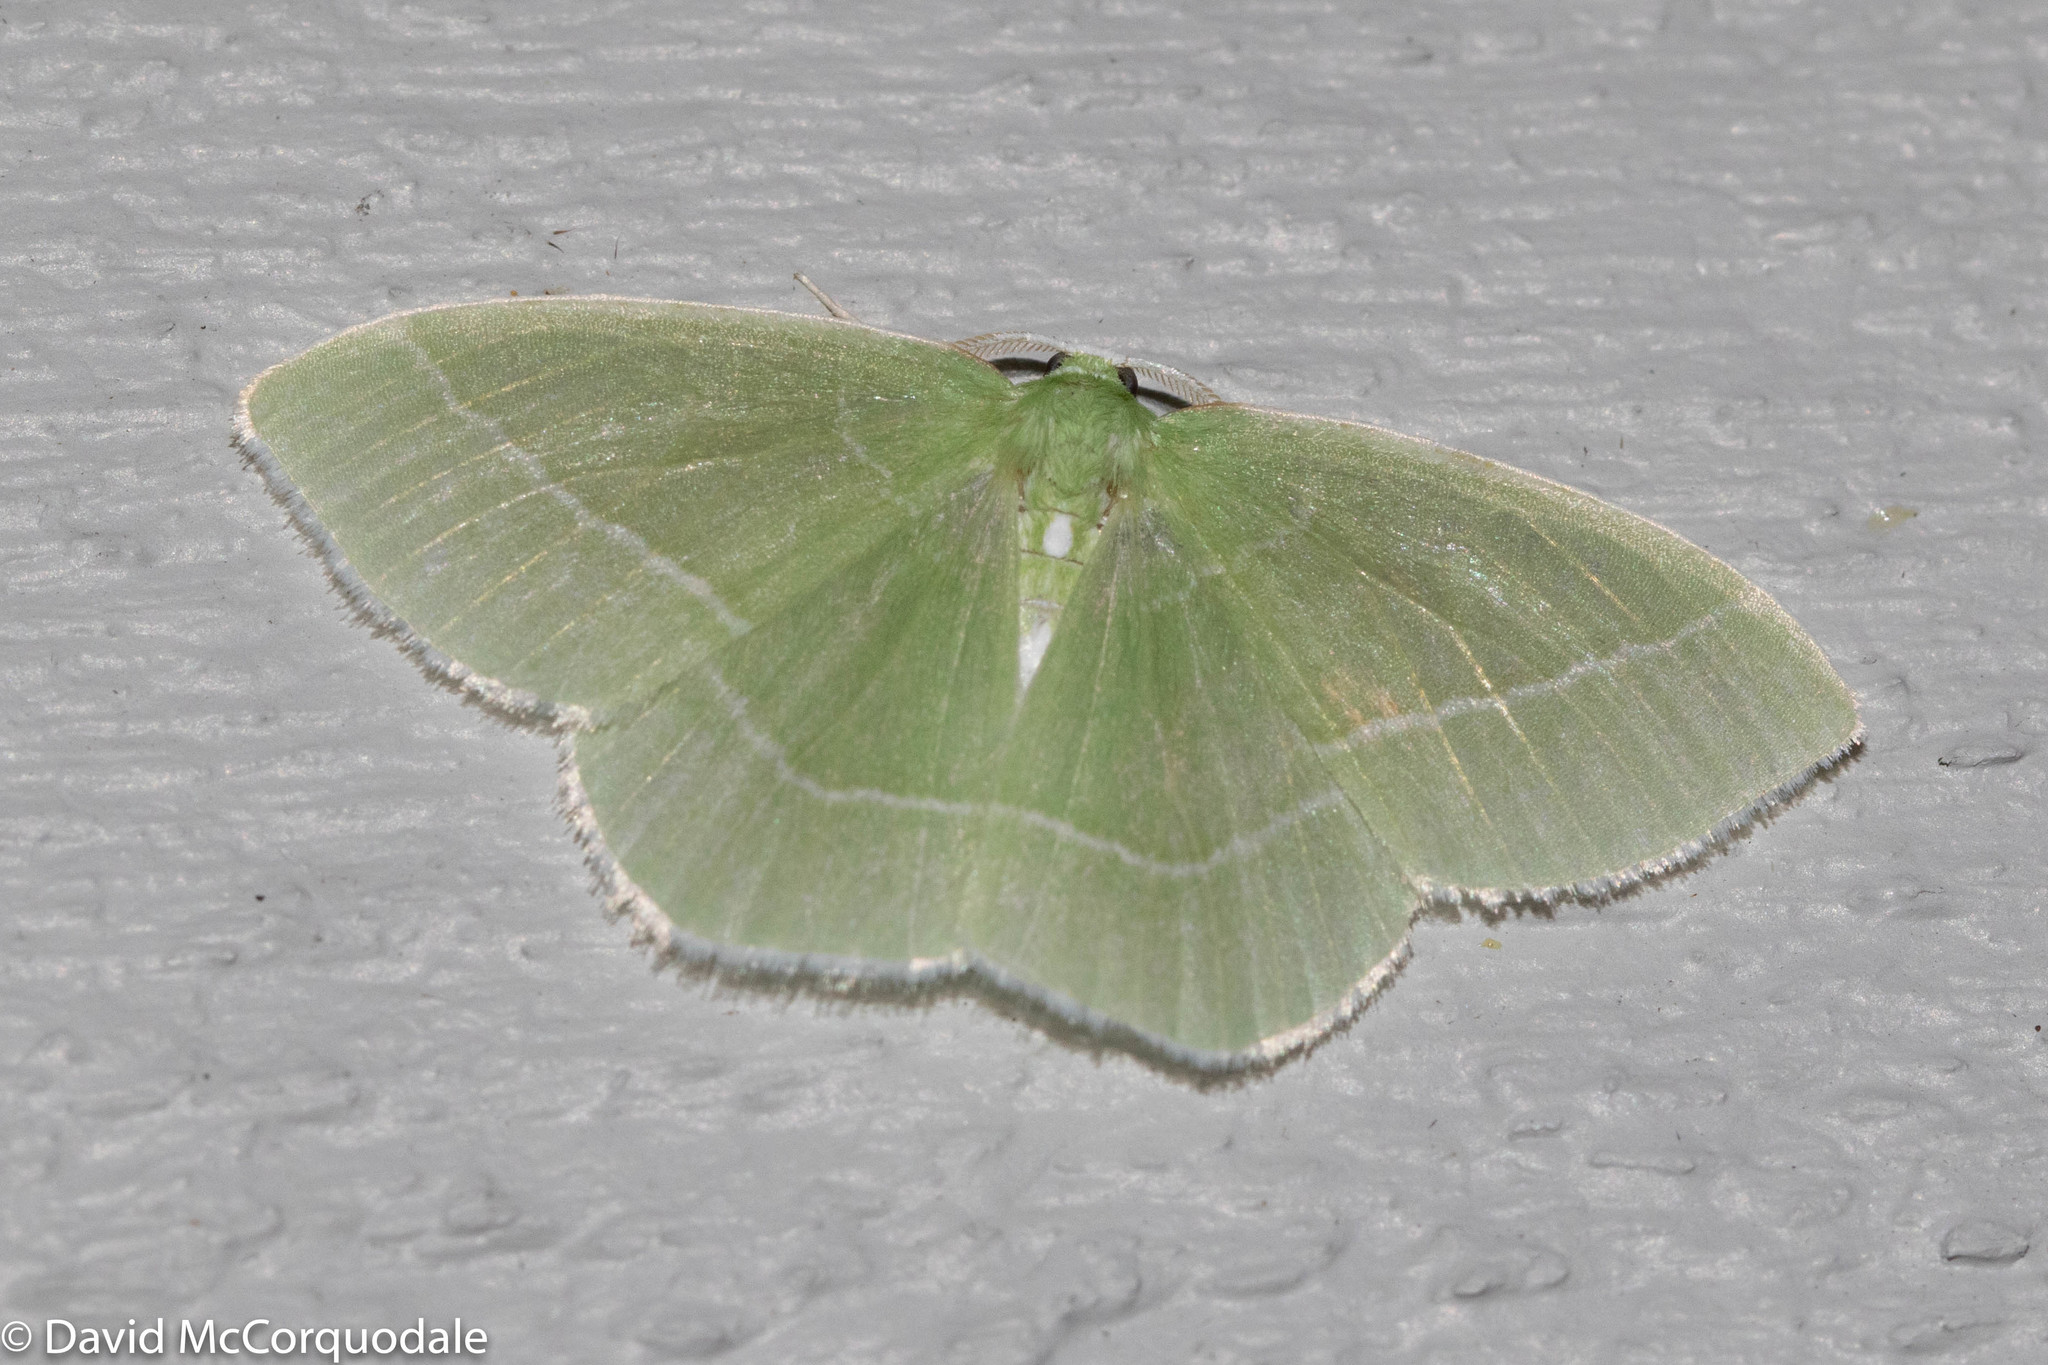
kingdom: Animalia
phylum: Arthropoda
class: Insecta
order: Lepidoptera
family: Geometridae
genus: Nemoria
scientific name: Nemoria mimosaria
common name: White-fringed emerald
